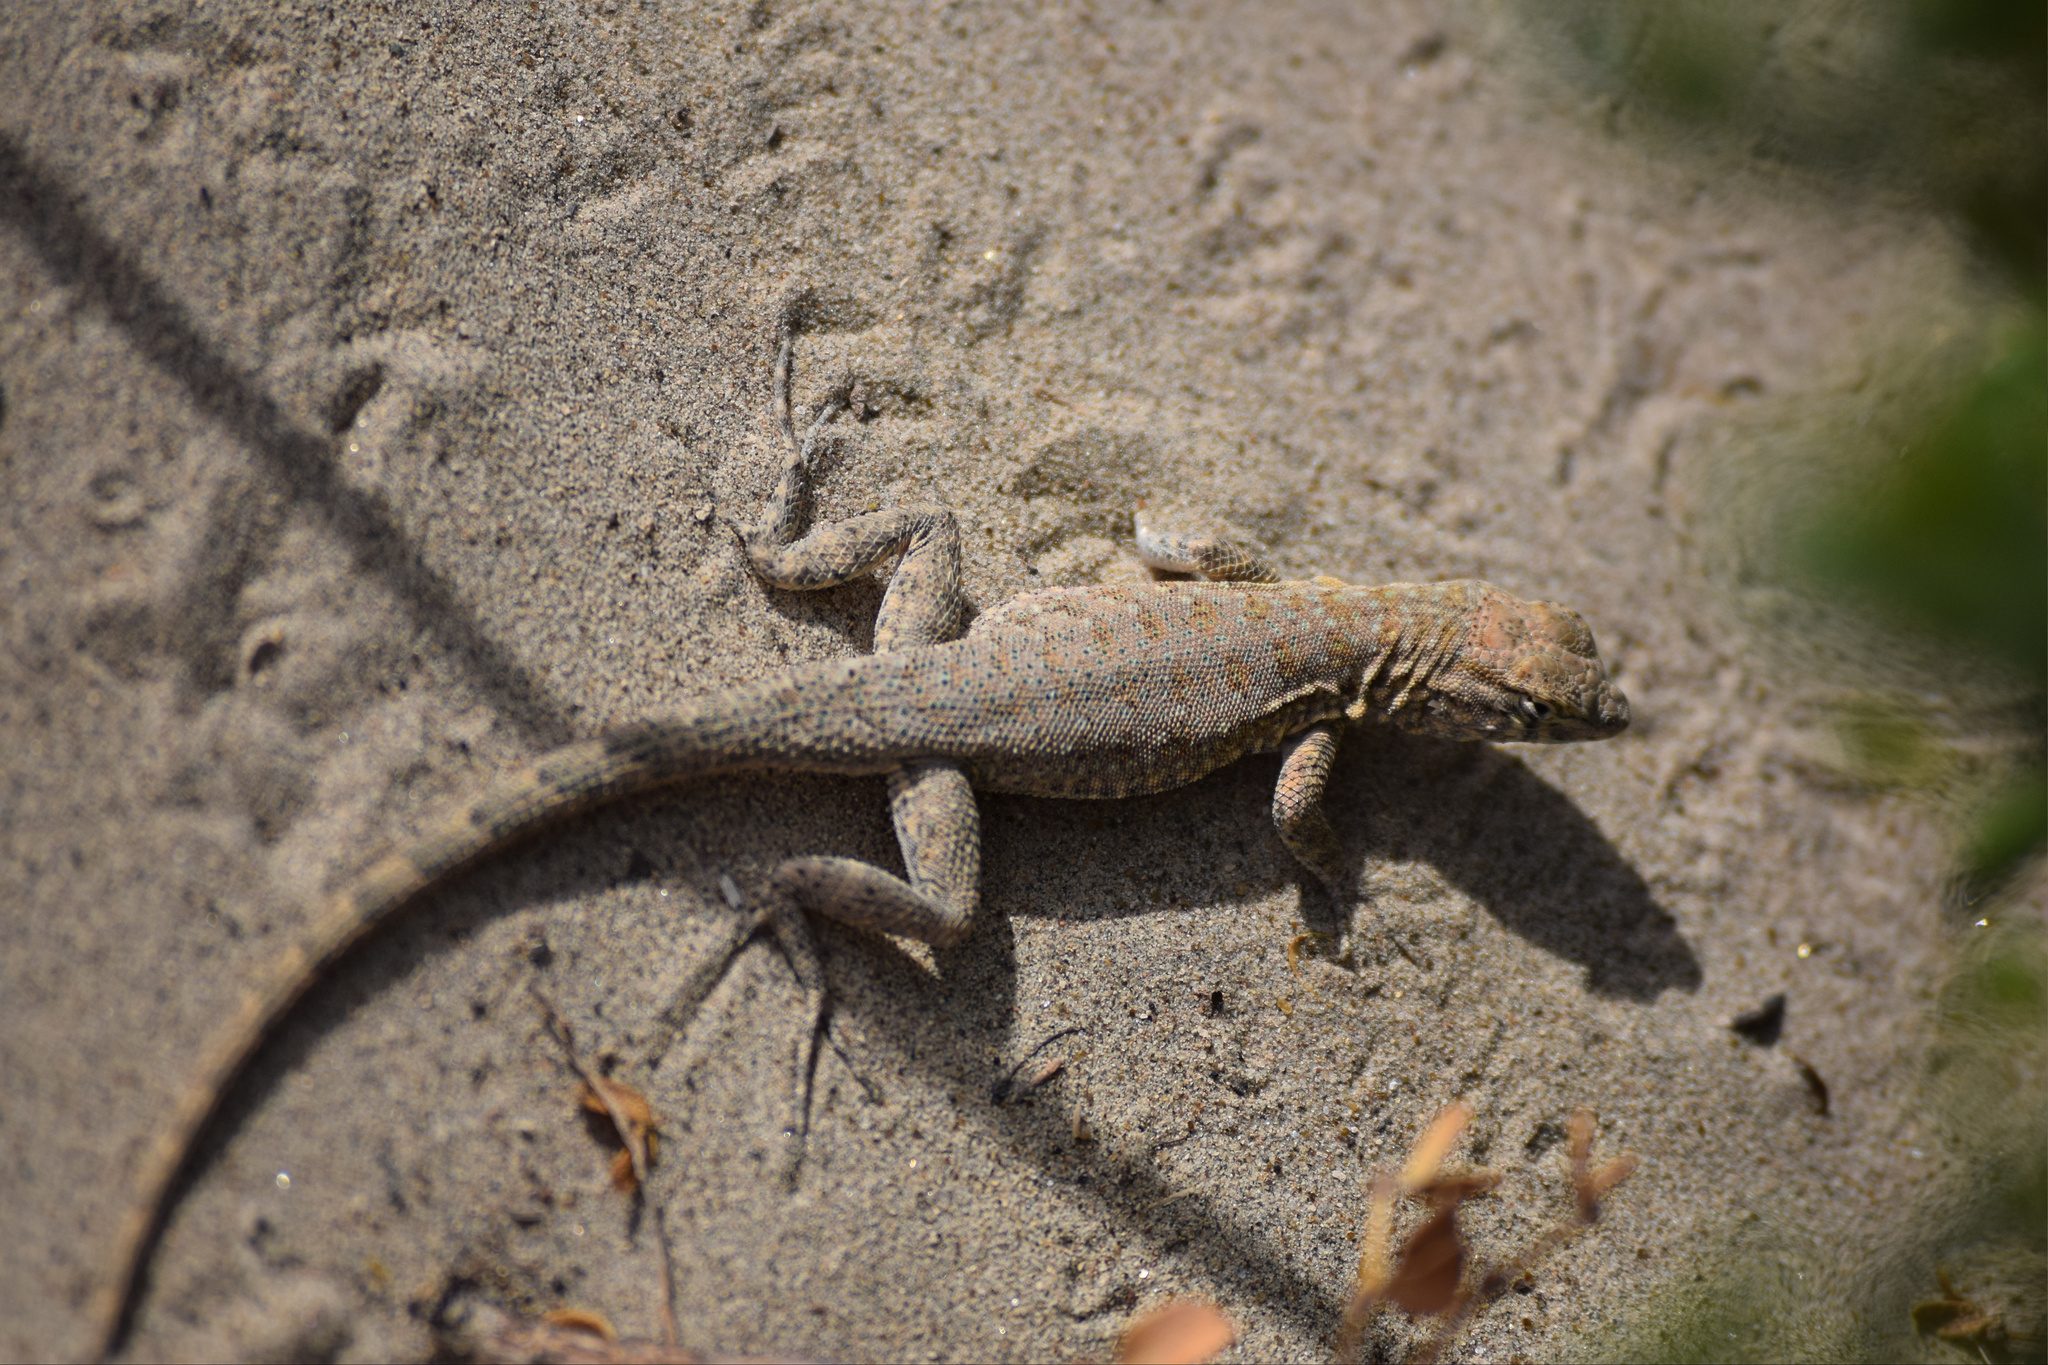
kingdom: Animalia
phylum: Chordata
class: Squamata
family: Phrynosomatidae
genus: Uta
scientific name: Uta stansburiana
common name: Side-blotched lizard
